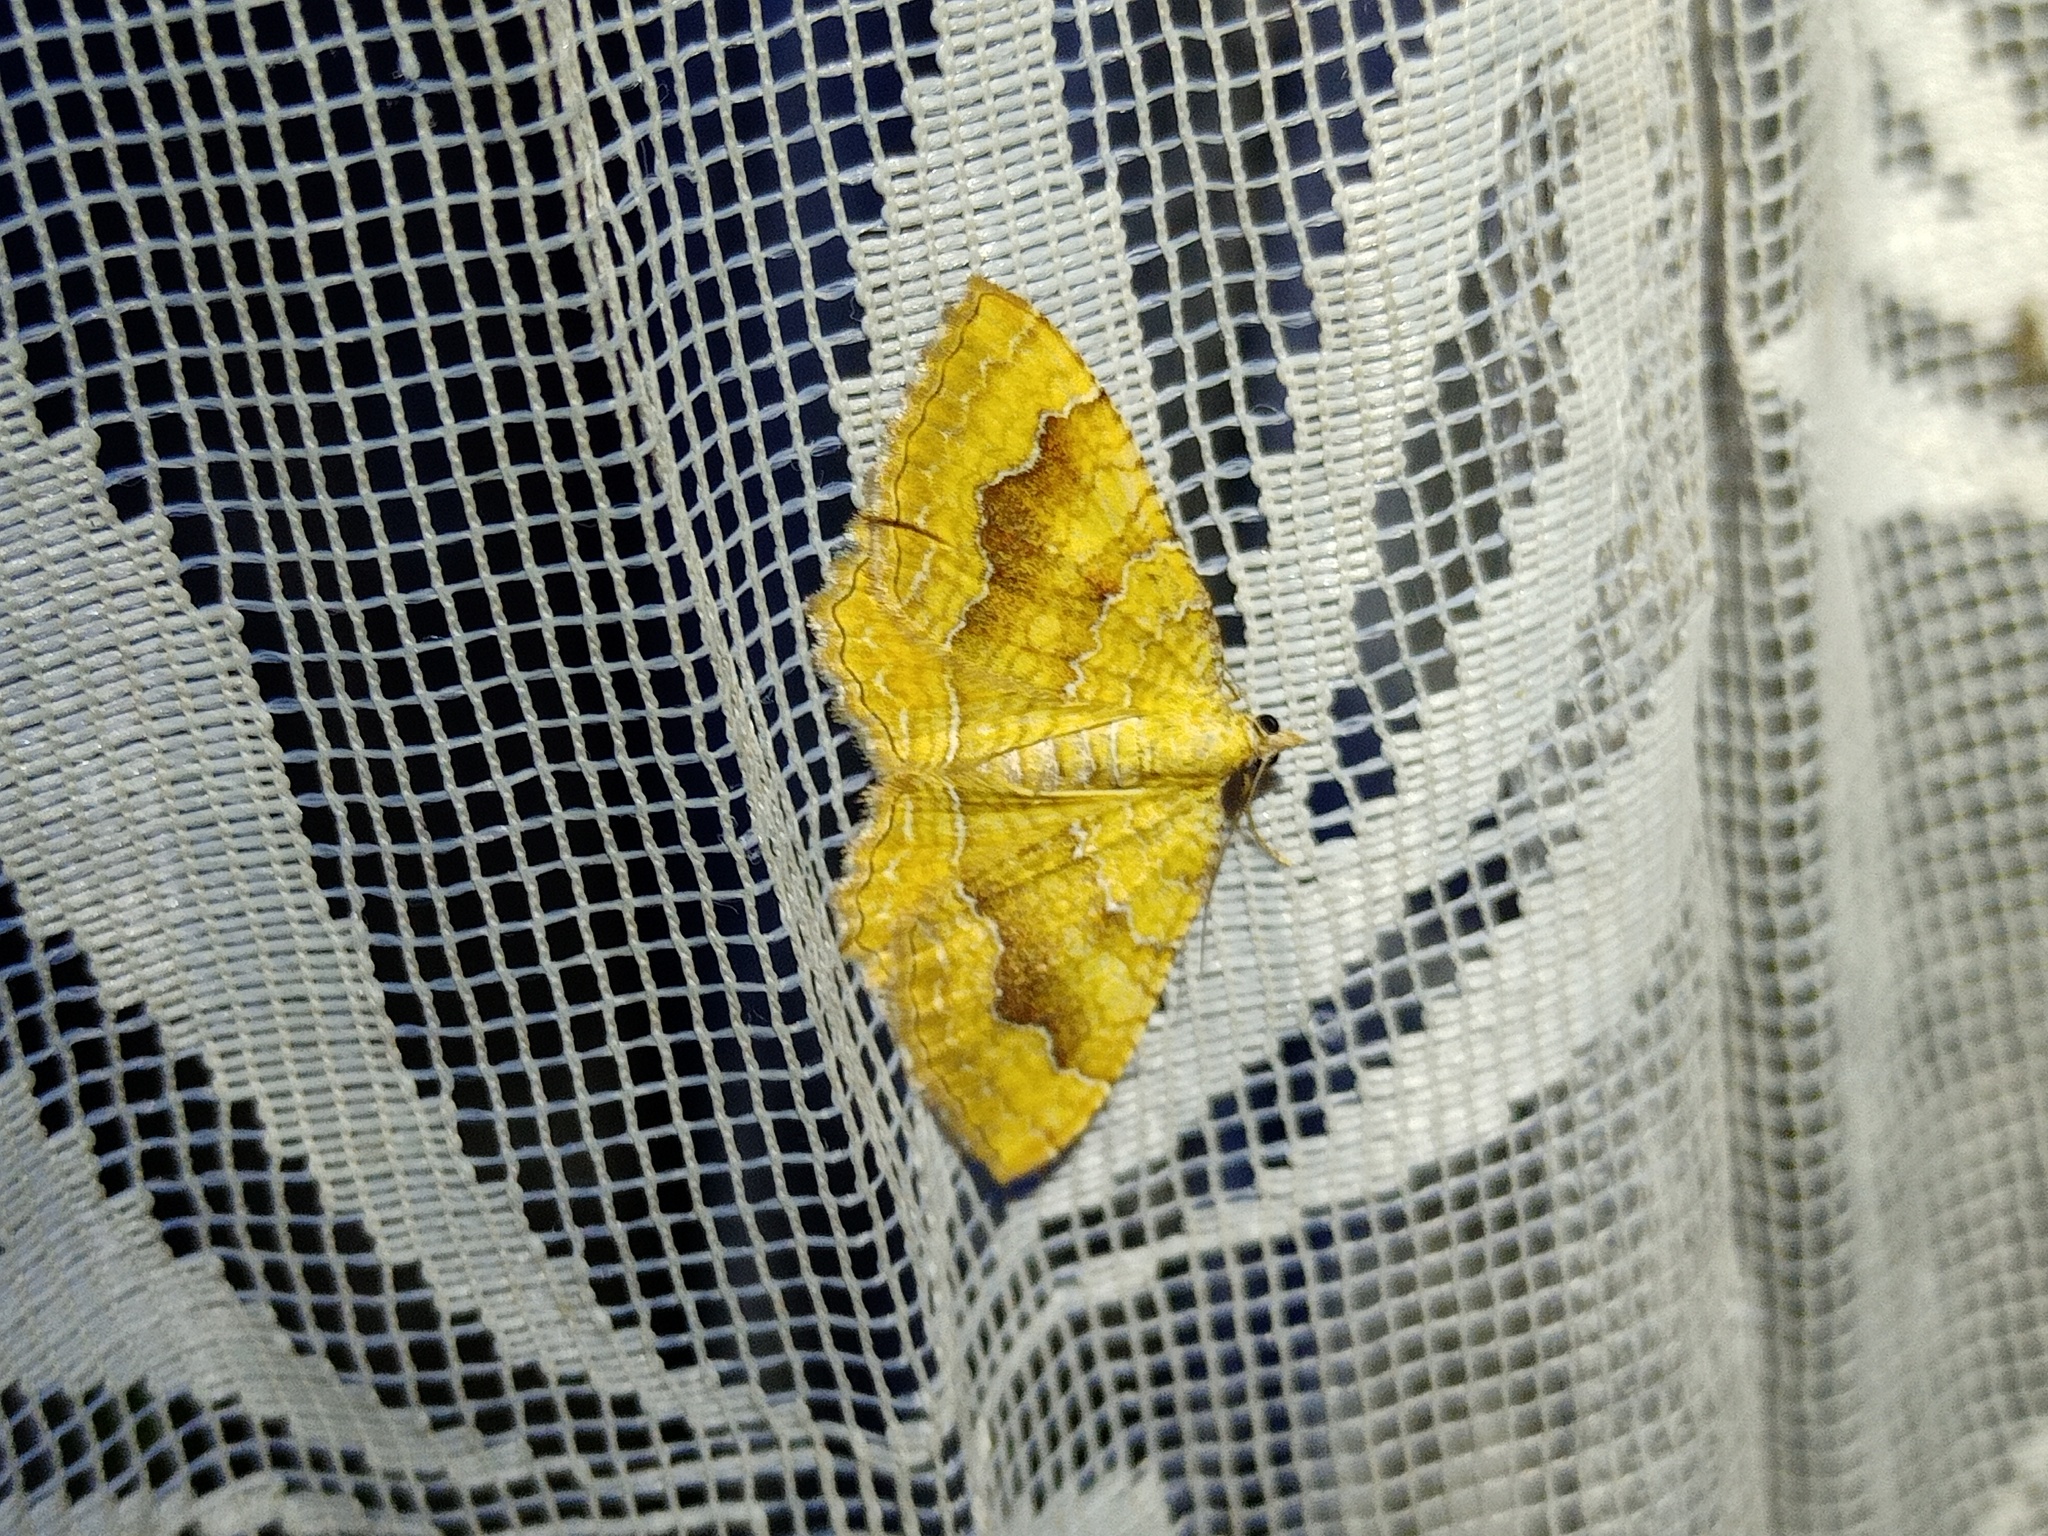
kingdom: Animalia
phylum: Arthropoda
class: Insecta
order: Lepidoptera
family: Geometridae
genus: Camptogramma
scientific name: Camptogramma bilineata
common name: Yellow shell
